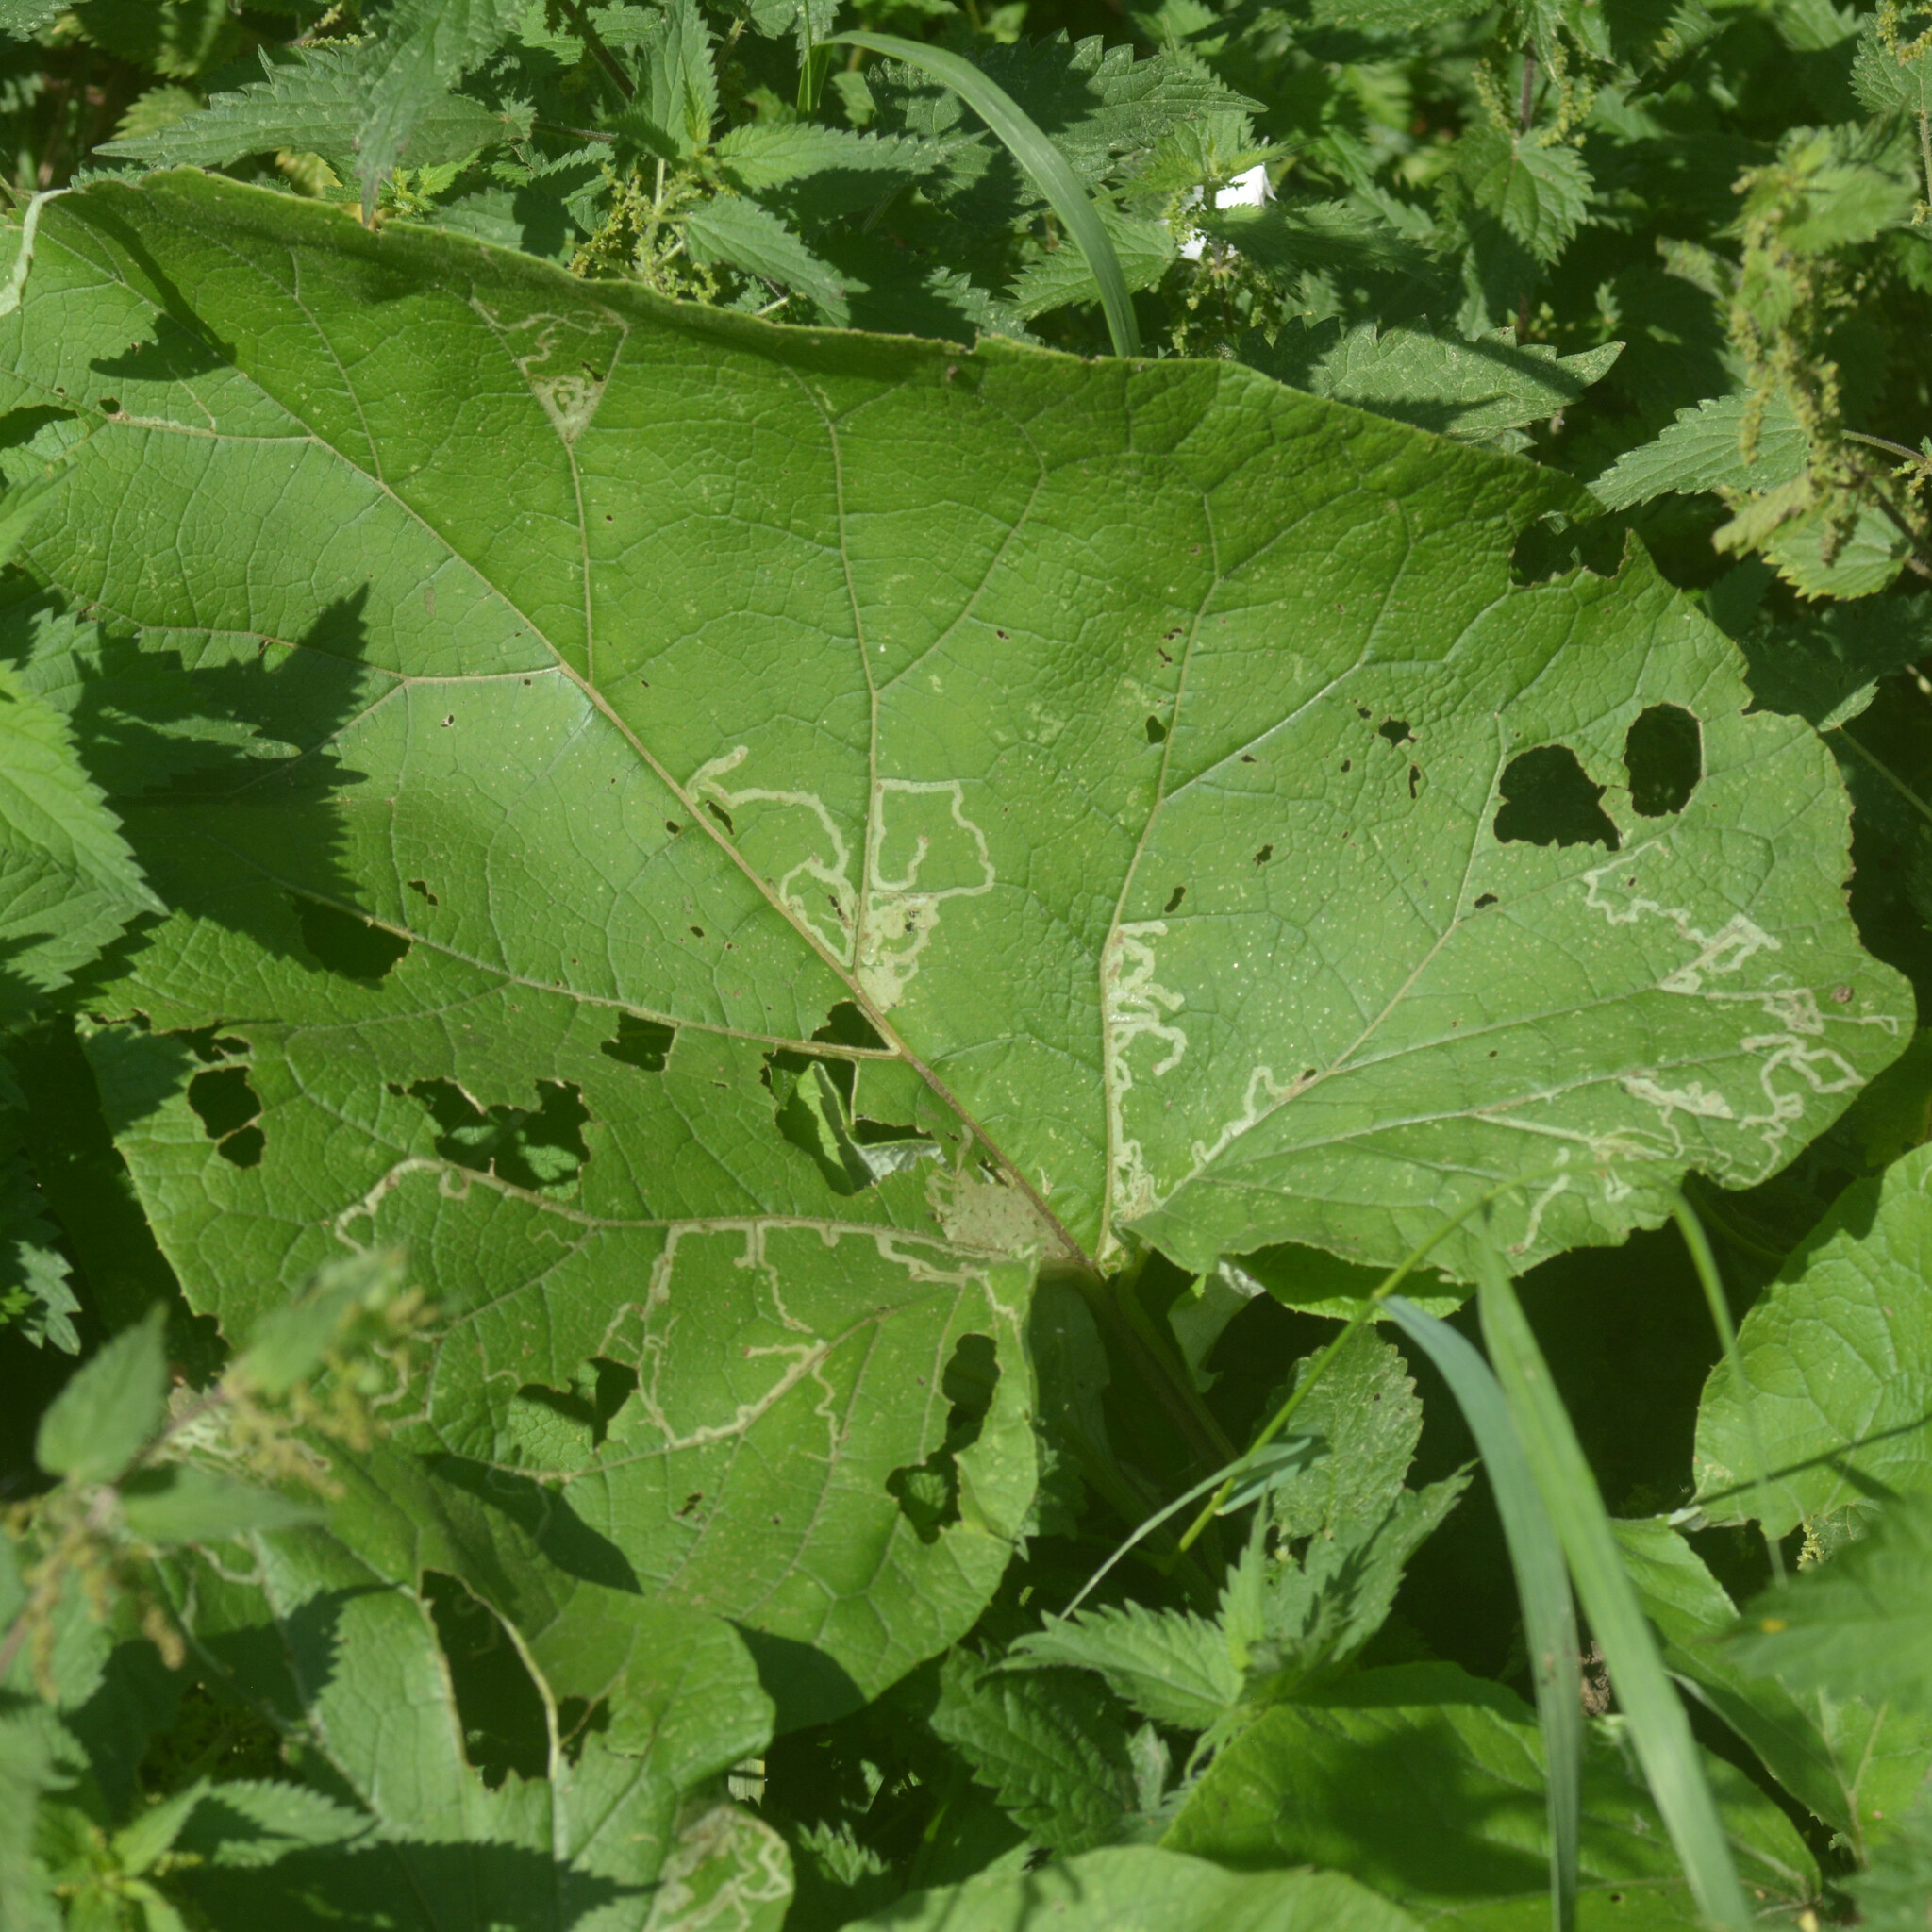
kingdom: Animalia
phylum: Arthropoda
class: Insecta
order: Diptera
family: Agromyzidae
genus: Phytomyza
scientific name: Phytomyza lappae
